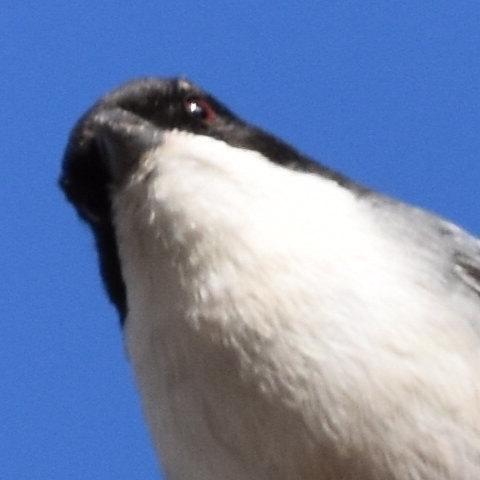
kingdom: Animalia
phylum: Chordata
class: Aves
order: Passeriformes
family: Thraupidae
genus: Microspingus
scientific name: Microspingus melanoleucus
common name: Black-capped warbling-finch
